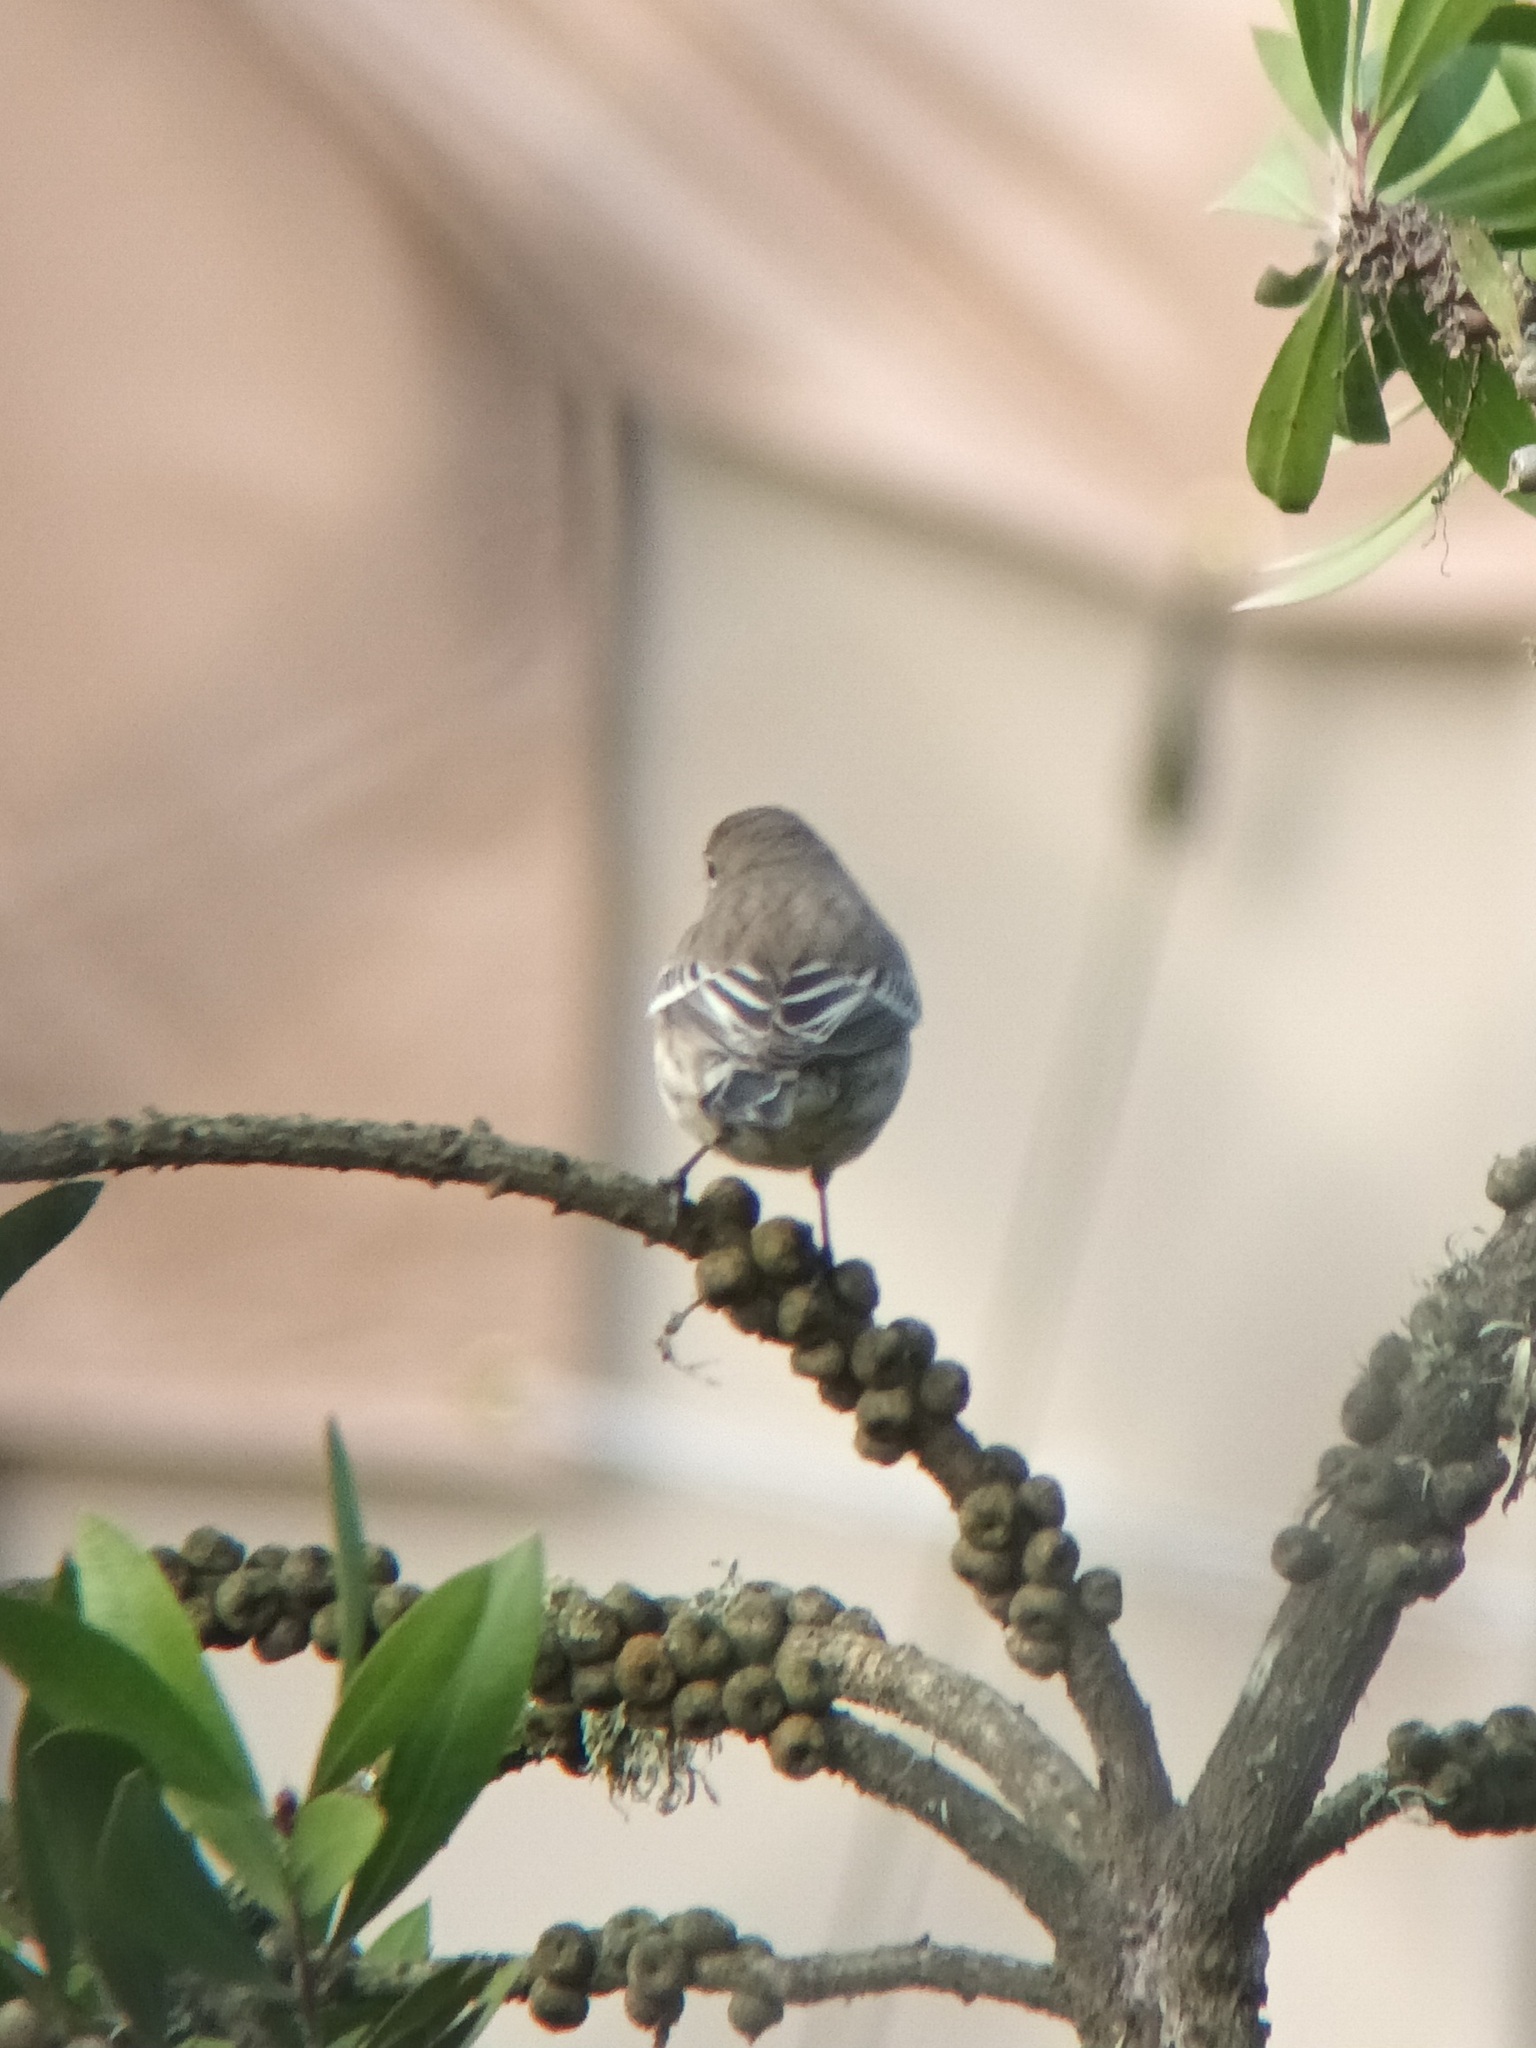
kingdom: Animalia
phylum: Chordata
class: Aves
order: Passeriformes
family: Parulidae
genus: Setophaga
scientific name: Setophaga coronata
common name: Myrtle warbler
